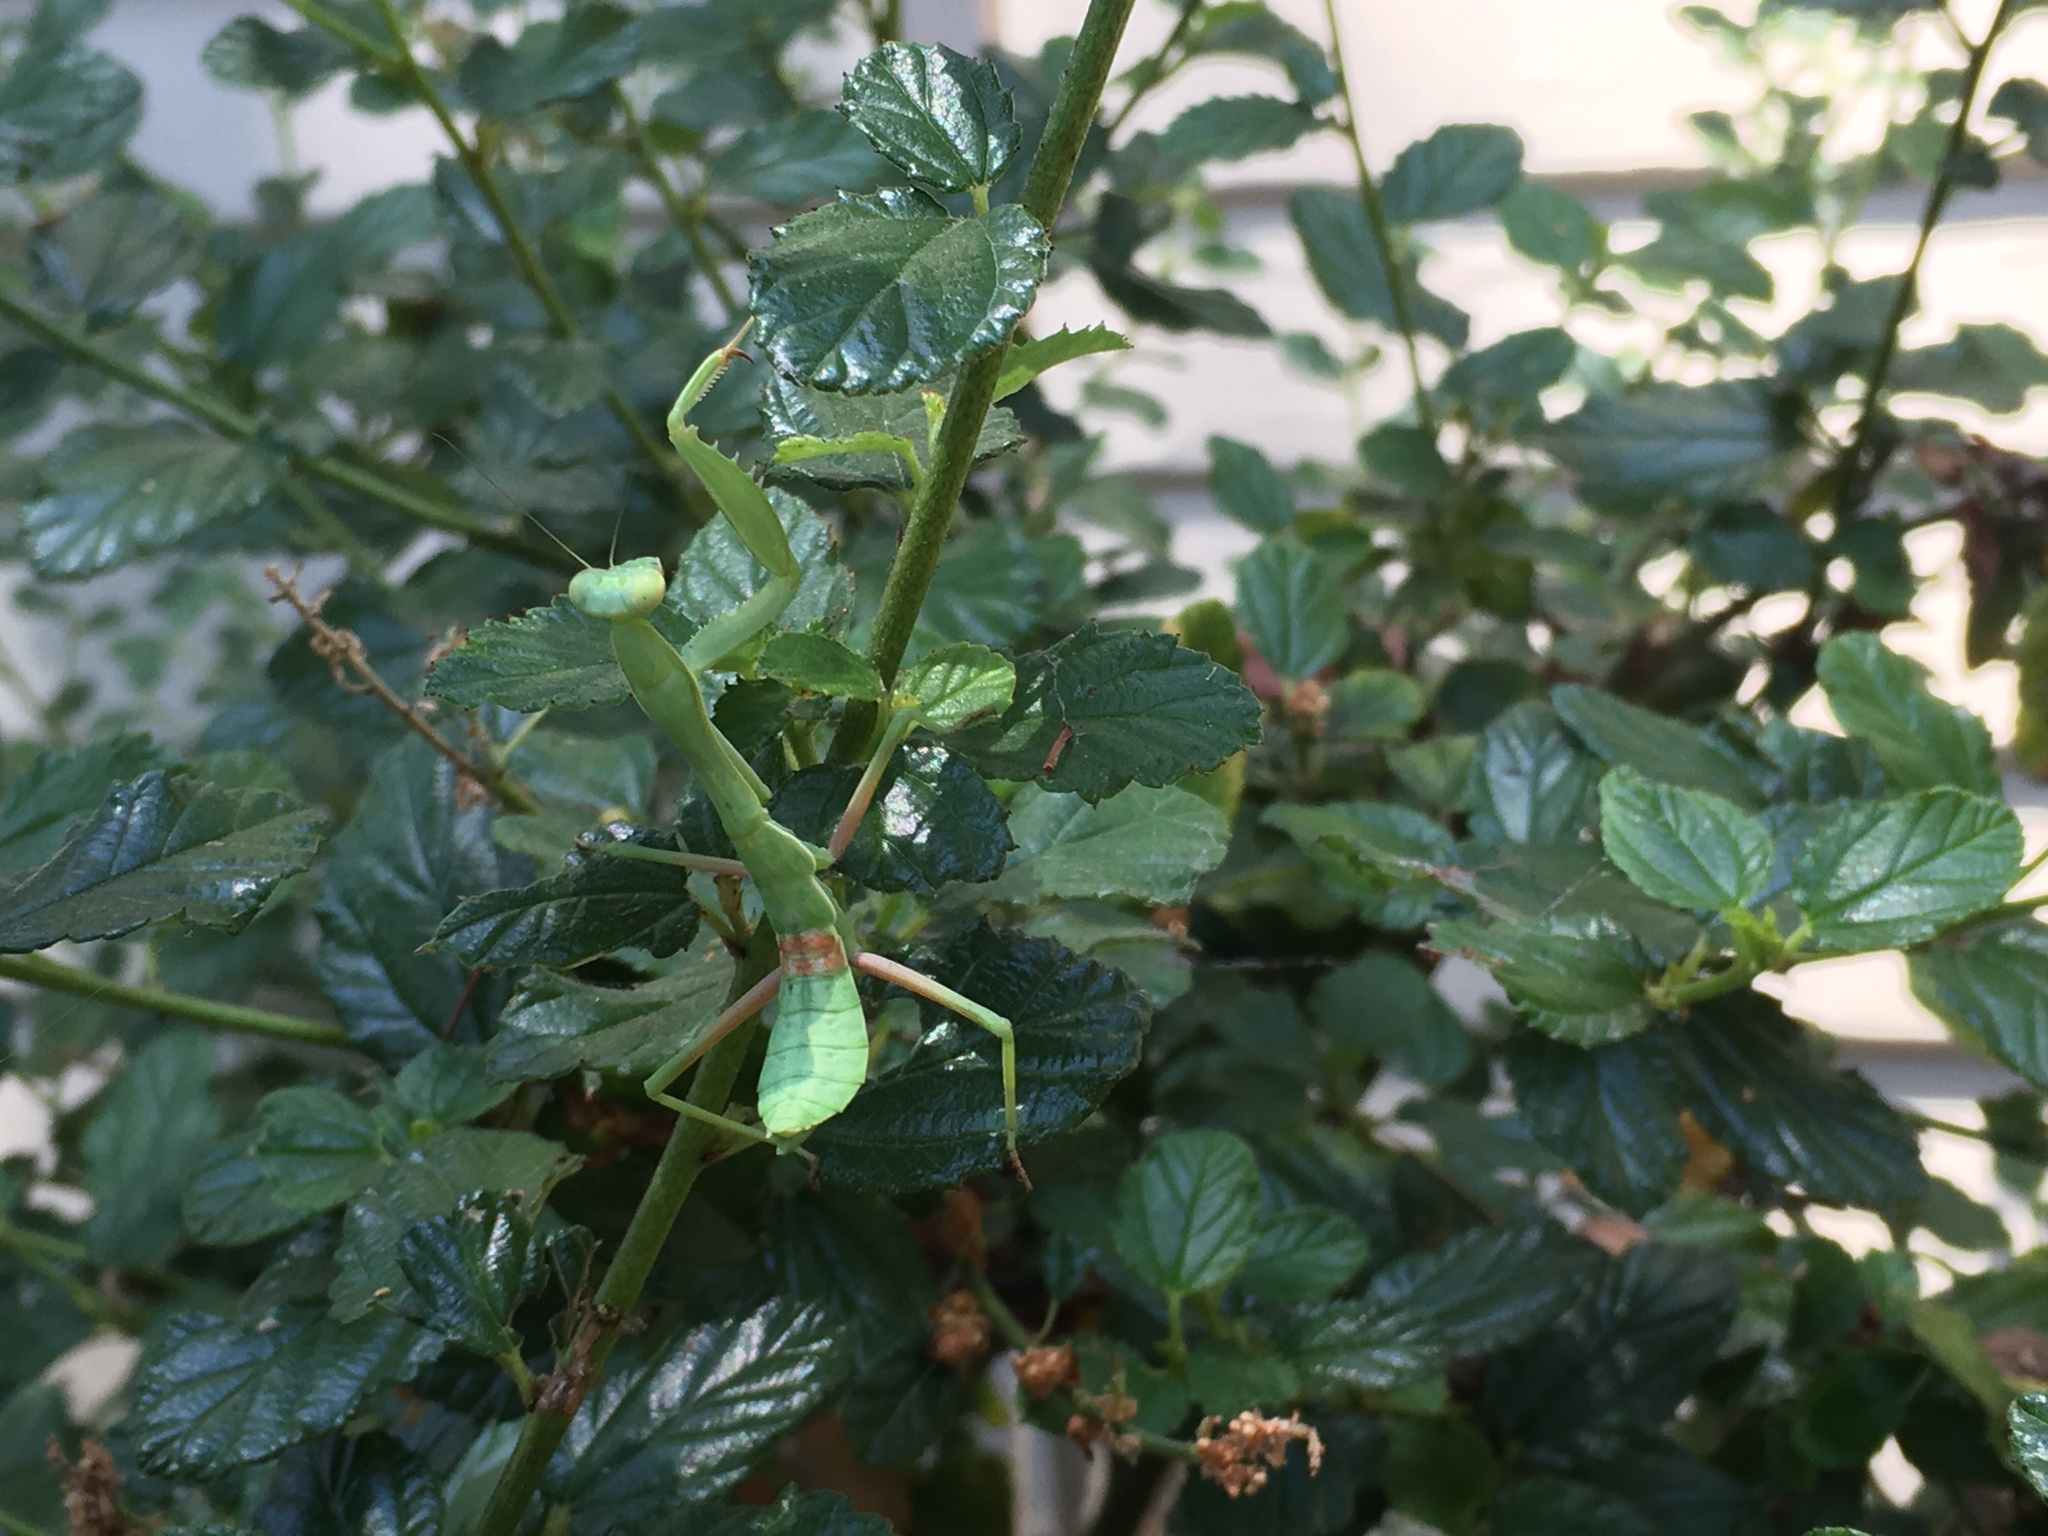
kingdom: Animalia
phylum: Arthropoda
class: Insecta
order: Mantodea
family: Mantidae
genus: Mantis
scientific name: Mantis religiosa
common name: Praying mantis
